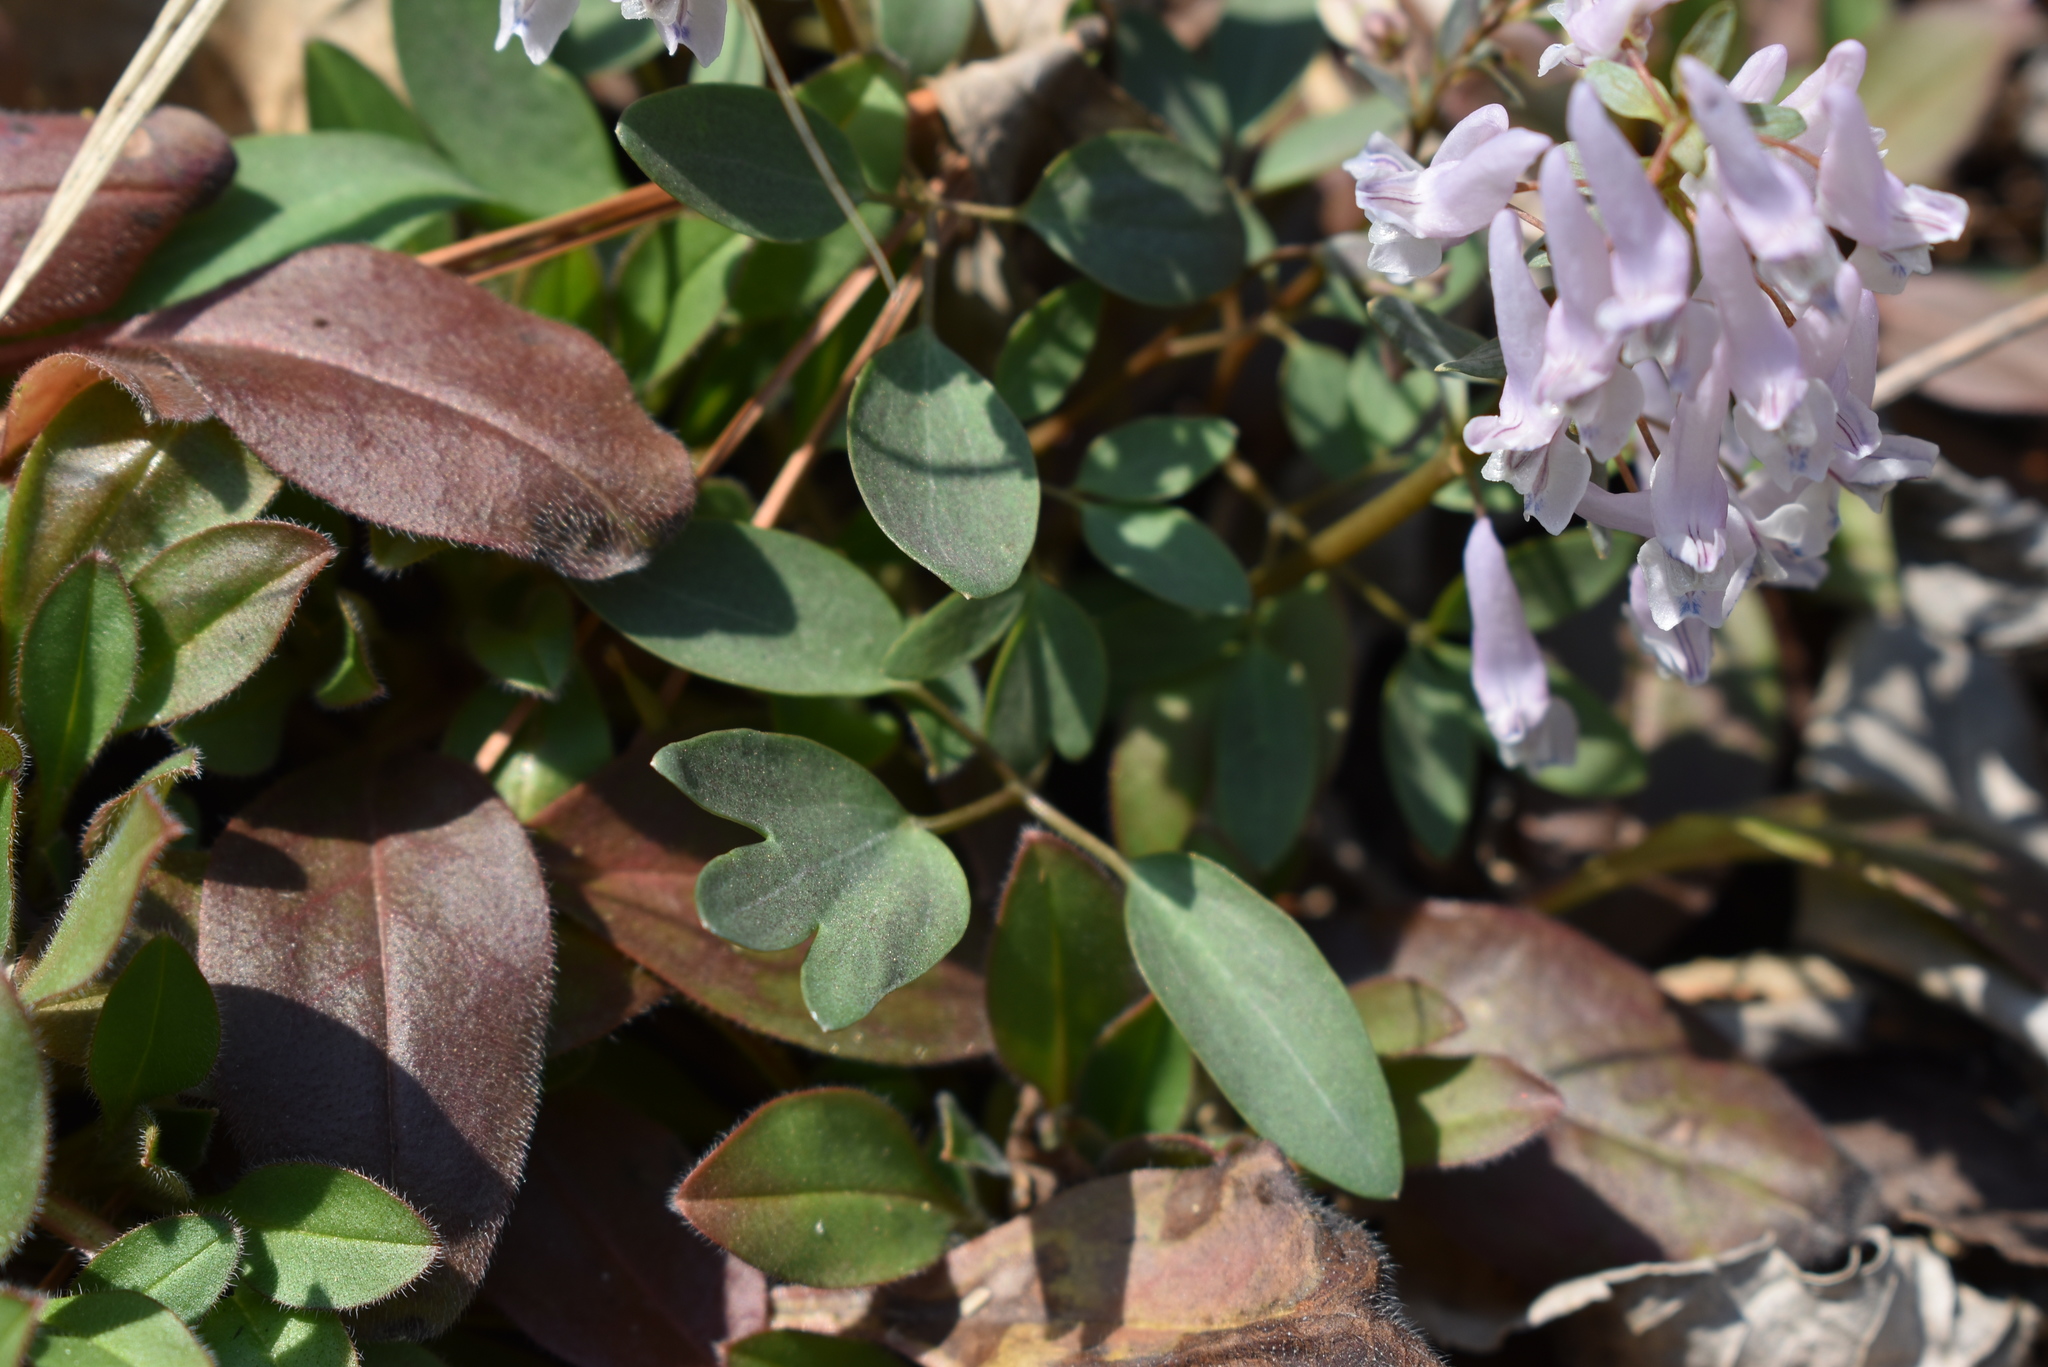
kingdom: Plantae
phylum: Tracheophyta
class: Magnoliopsida
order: Ranunculales
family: Papaveraceae
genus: Corydalis
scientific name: Corydalis repens
